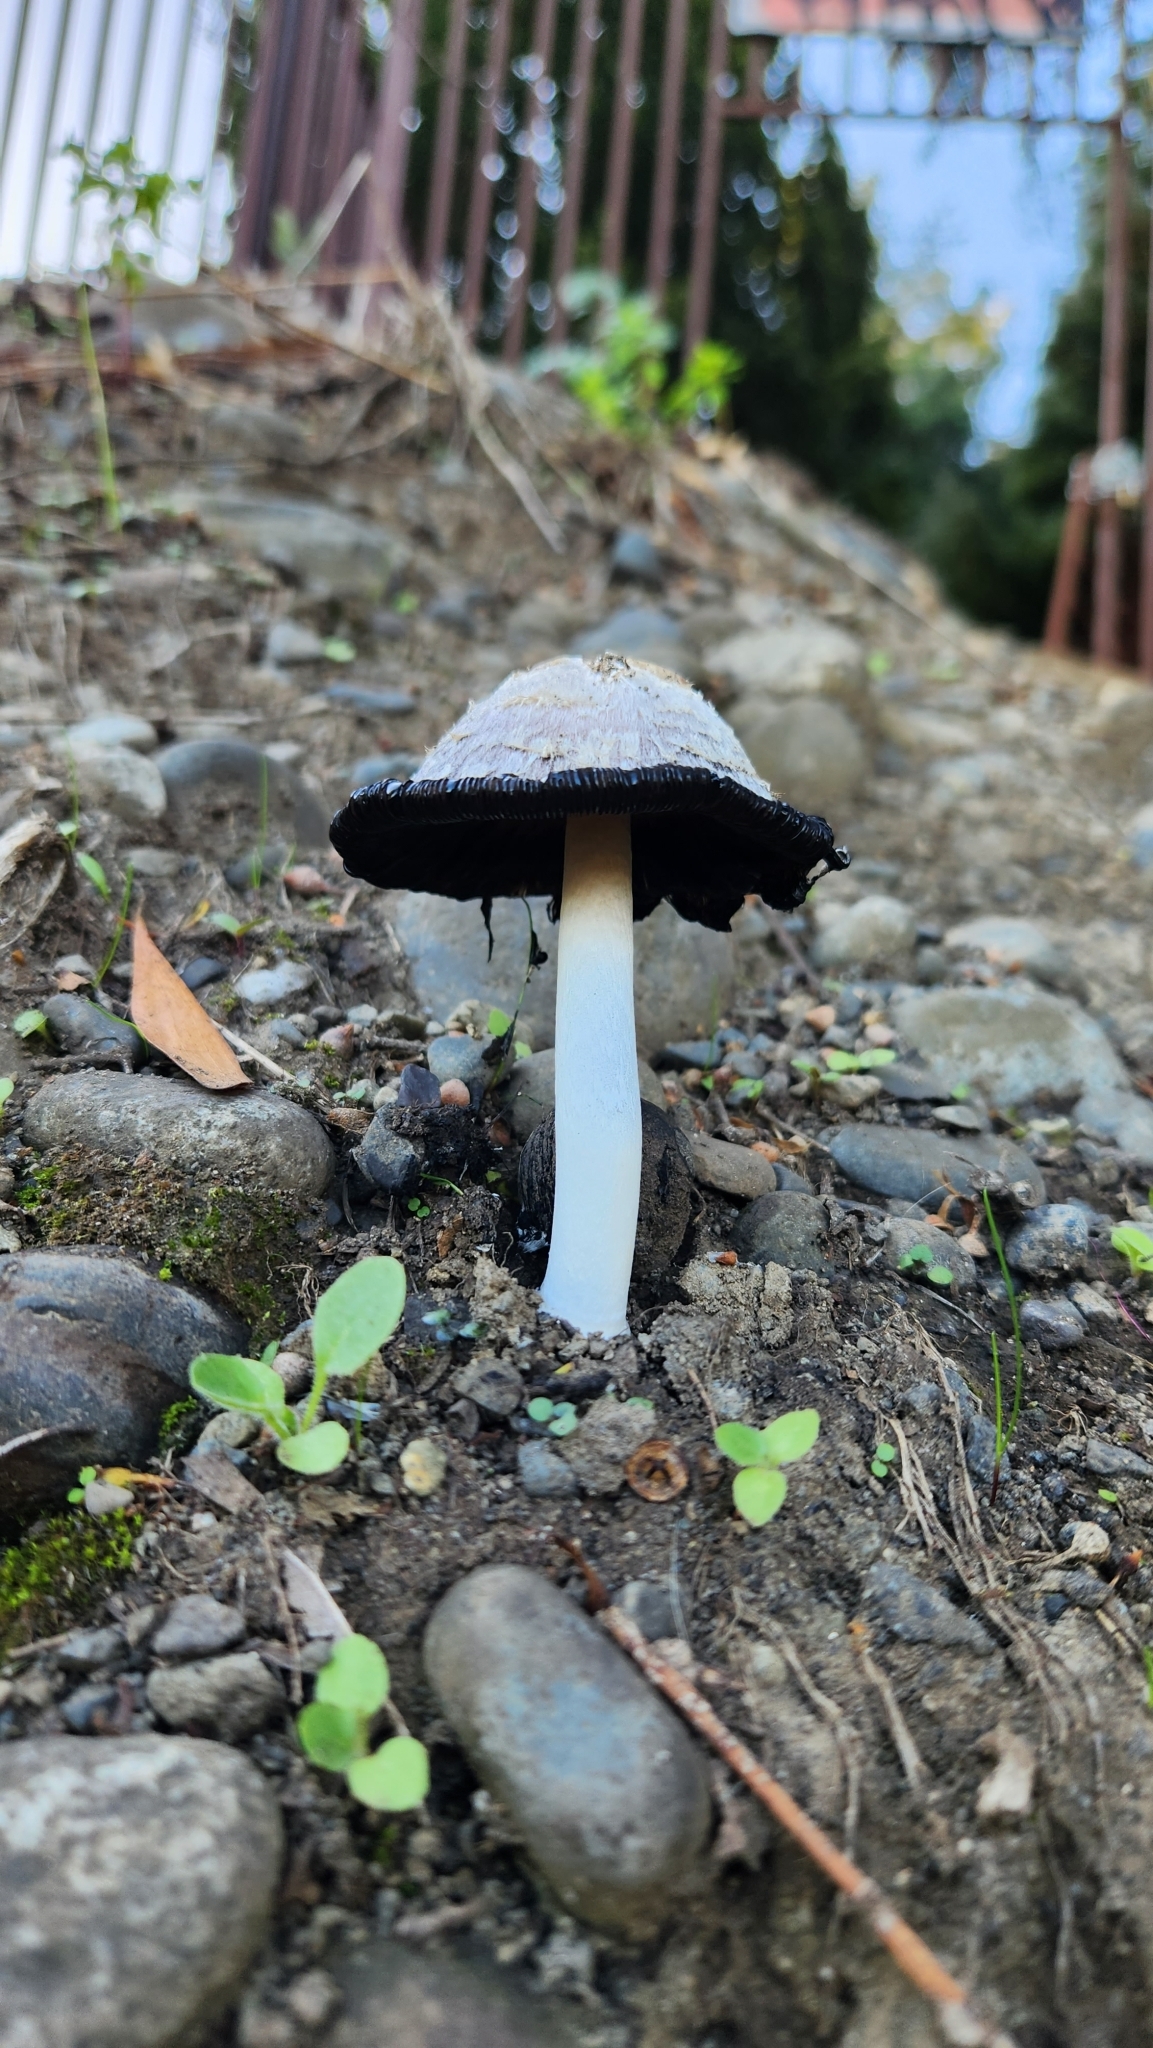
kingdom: Fungi
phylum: Basidiomycota
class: Agaricomycetes
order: Agaricales
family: Agaricaceae
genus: Coprinus
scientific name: Coprinus comatus
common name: Lawyer's wig
